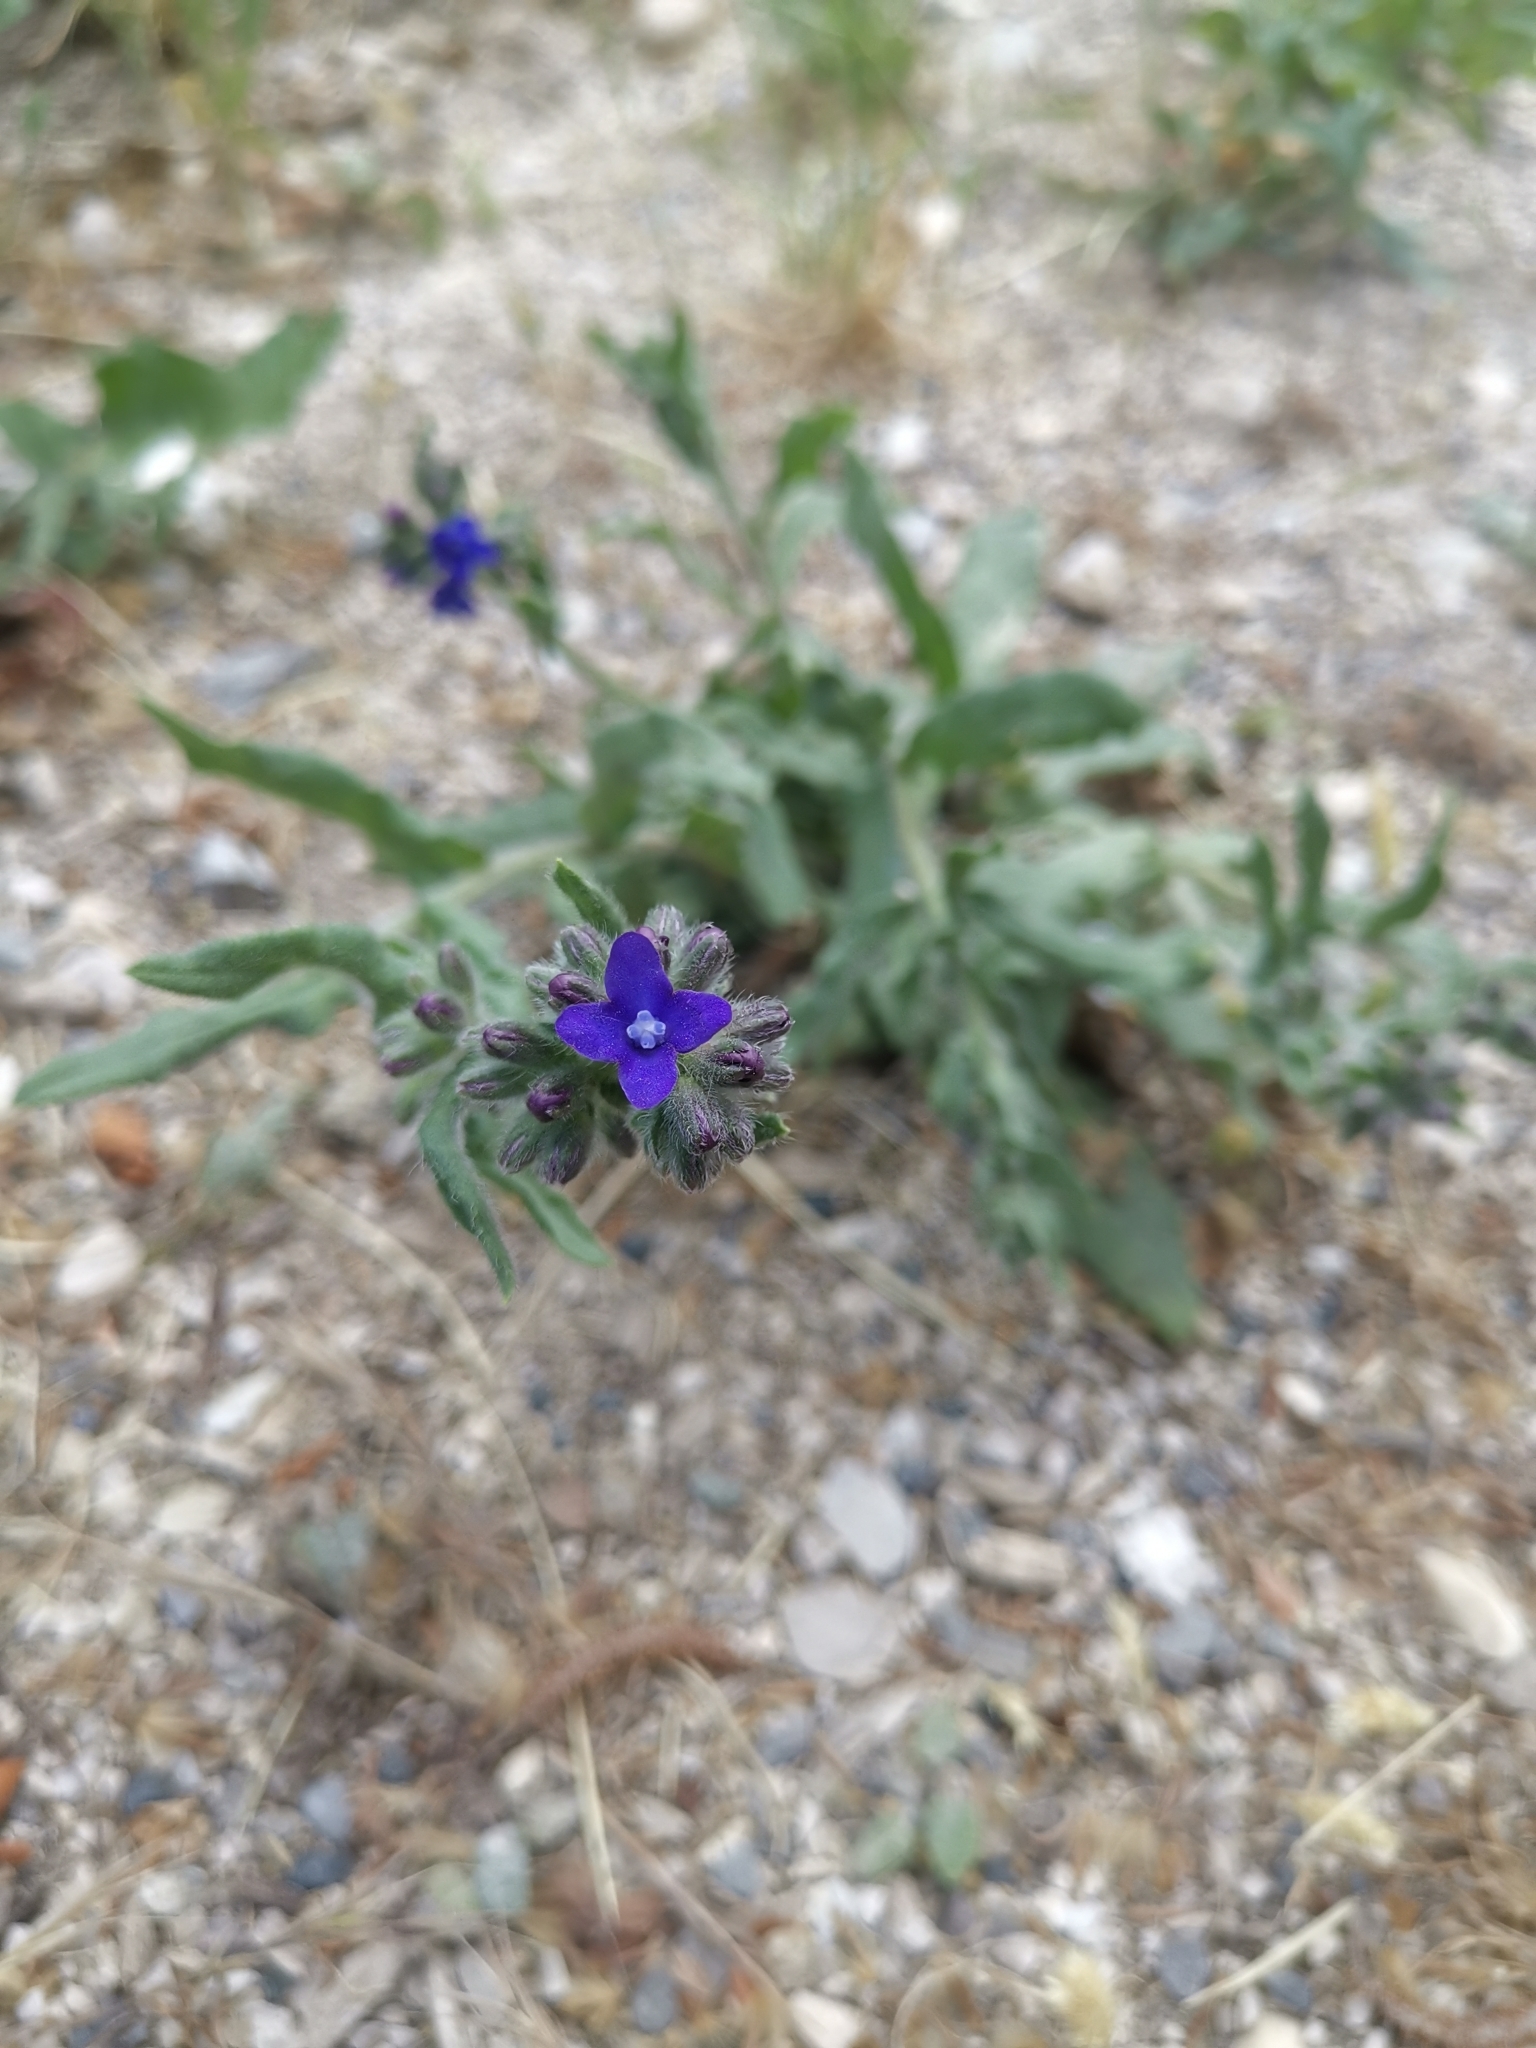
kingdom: Plantae
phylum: Tracheophyta
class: Magnoliopsida
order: Boraginales
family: Boraginaceae
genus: Anchusa
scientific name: Anchusa officinalis
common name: Alkanet
